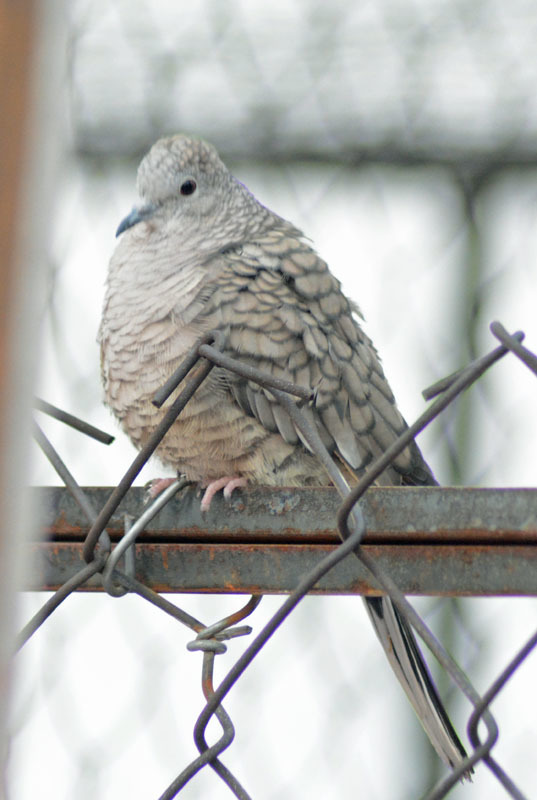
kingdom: Animalia
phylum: Chordata
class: Aves
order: Columbiformes
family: Columbidae
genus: Columbina
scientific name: Columbina inca
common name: Inca dove
